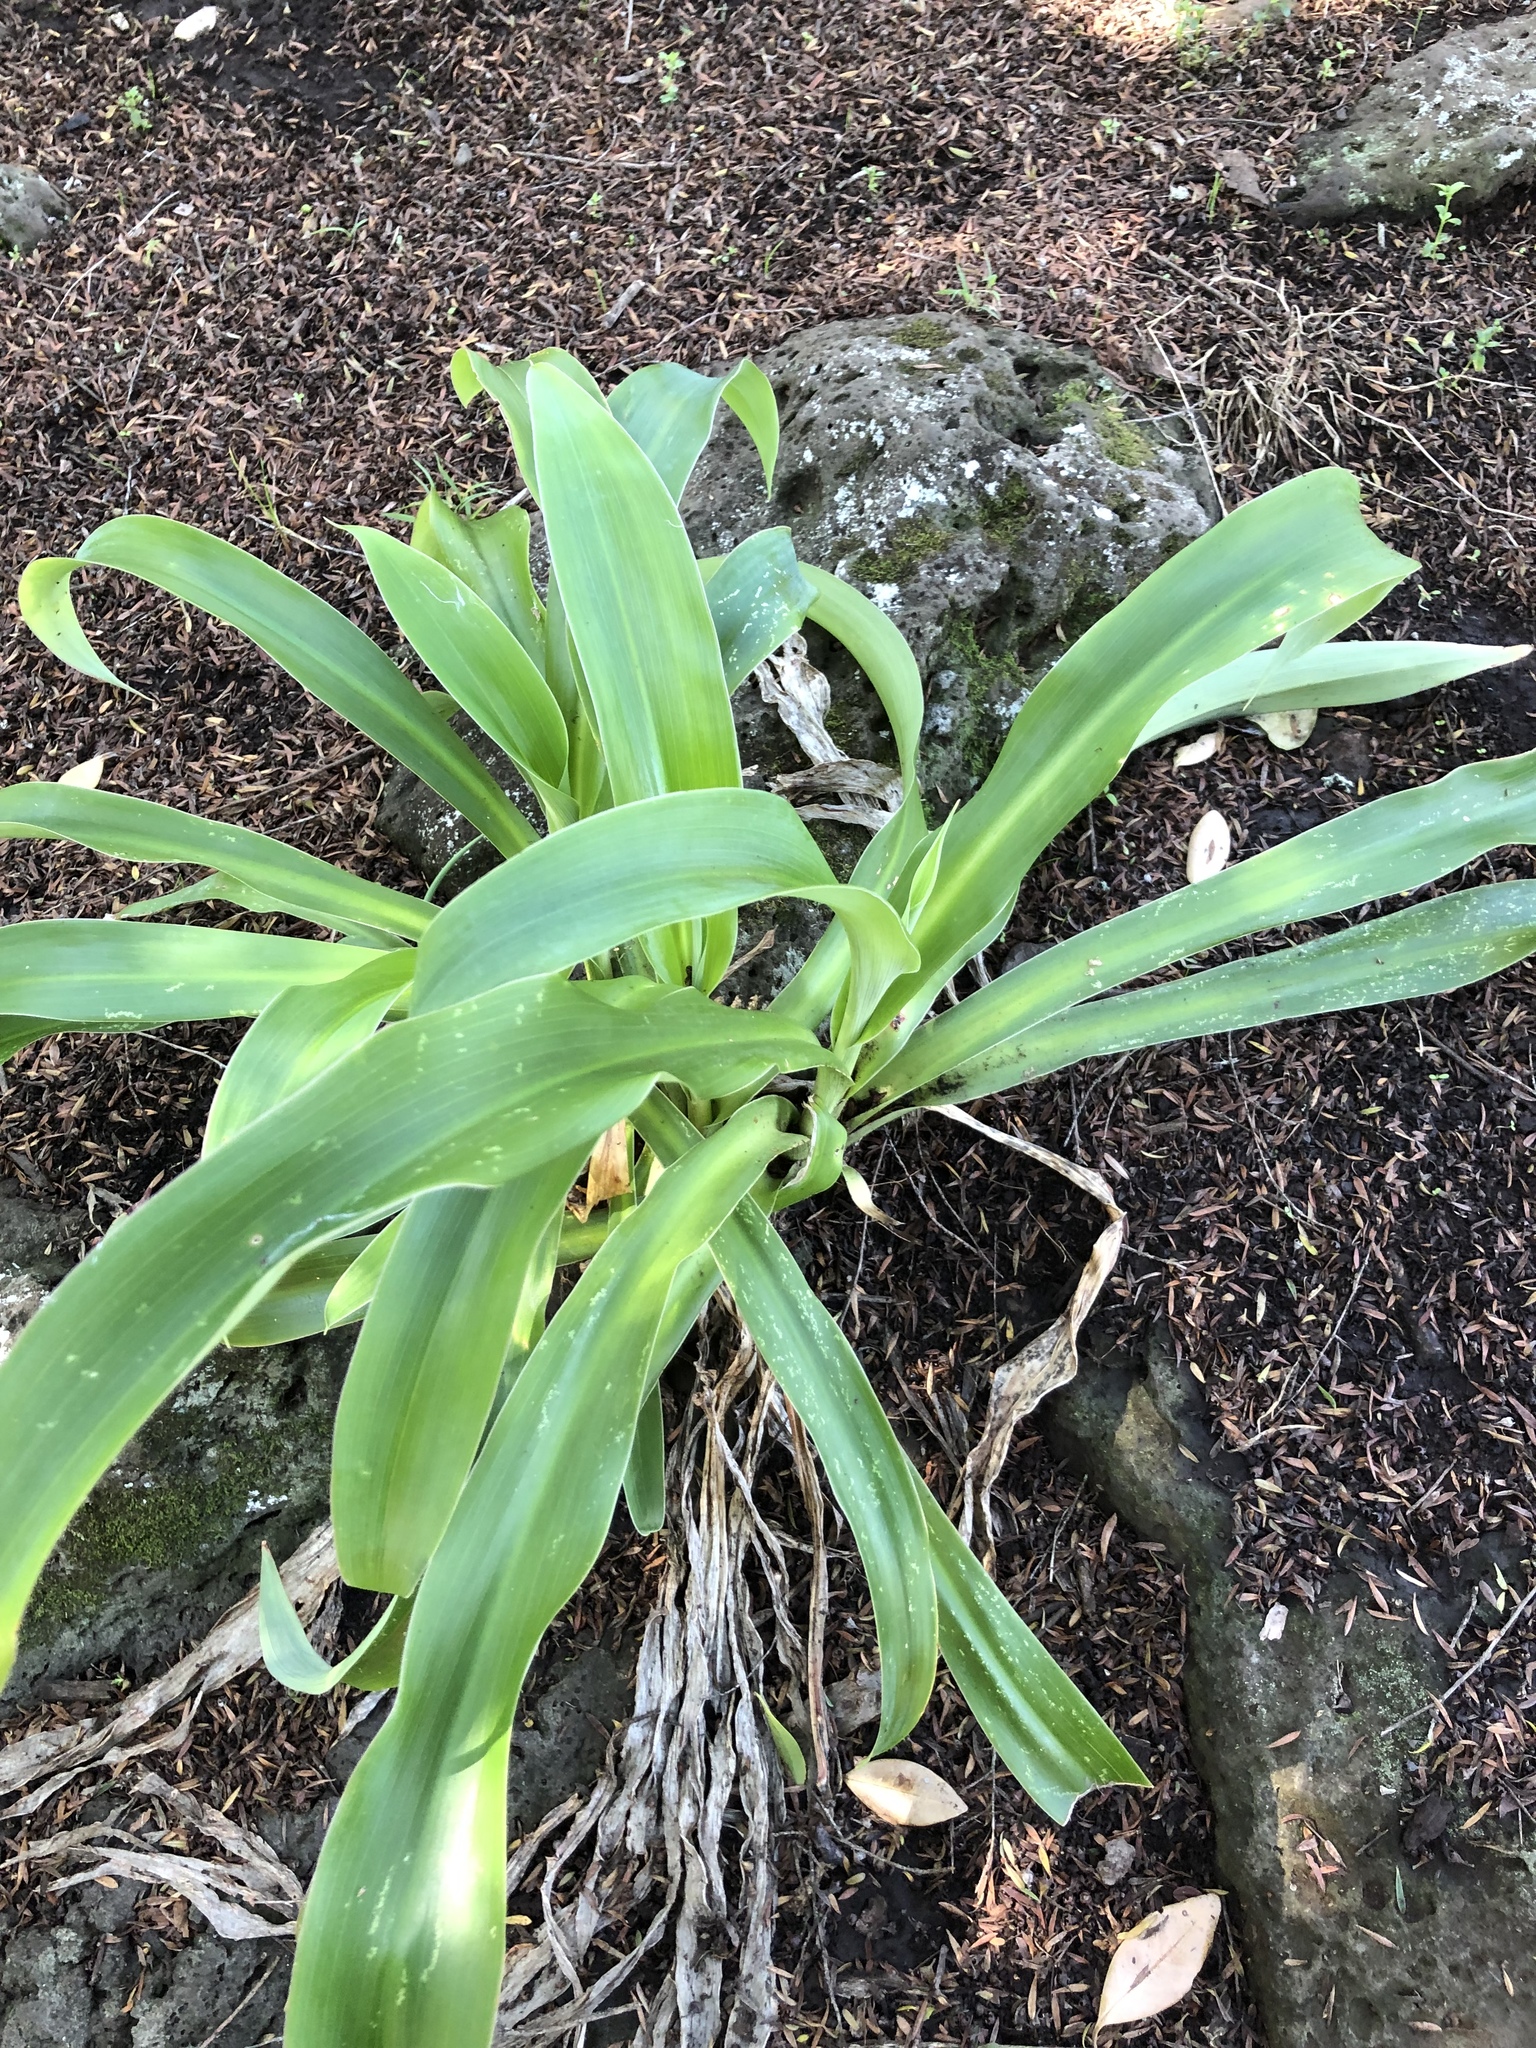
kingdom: Plantae
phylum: Tracheophyta
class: Liliopsida
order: Asparagales
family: Asparagaceae
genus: Arthropodium
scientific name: Arthropodium cirratum
